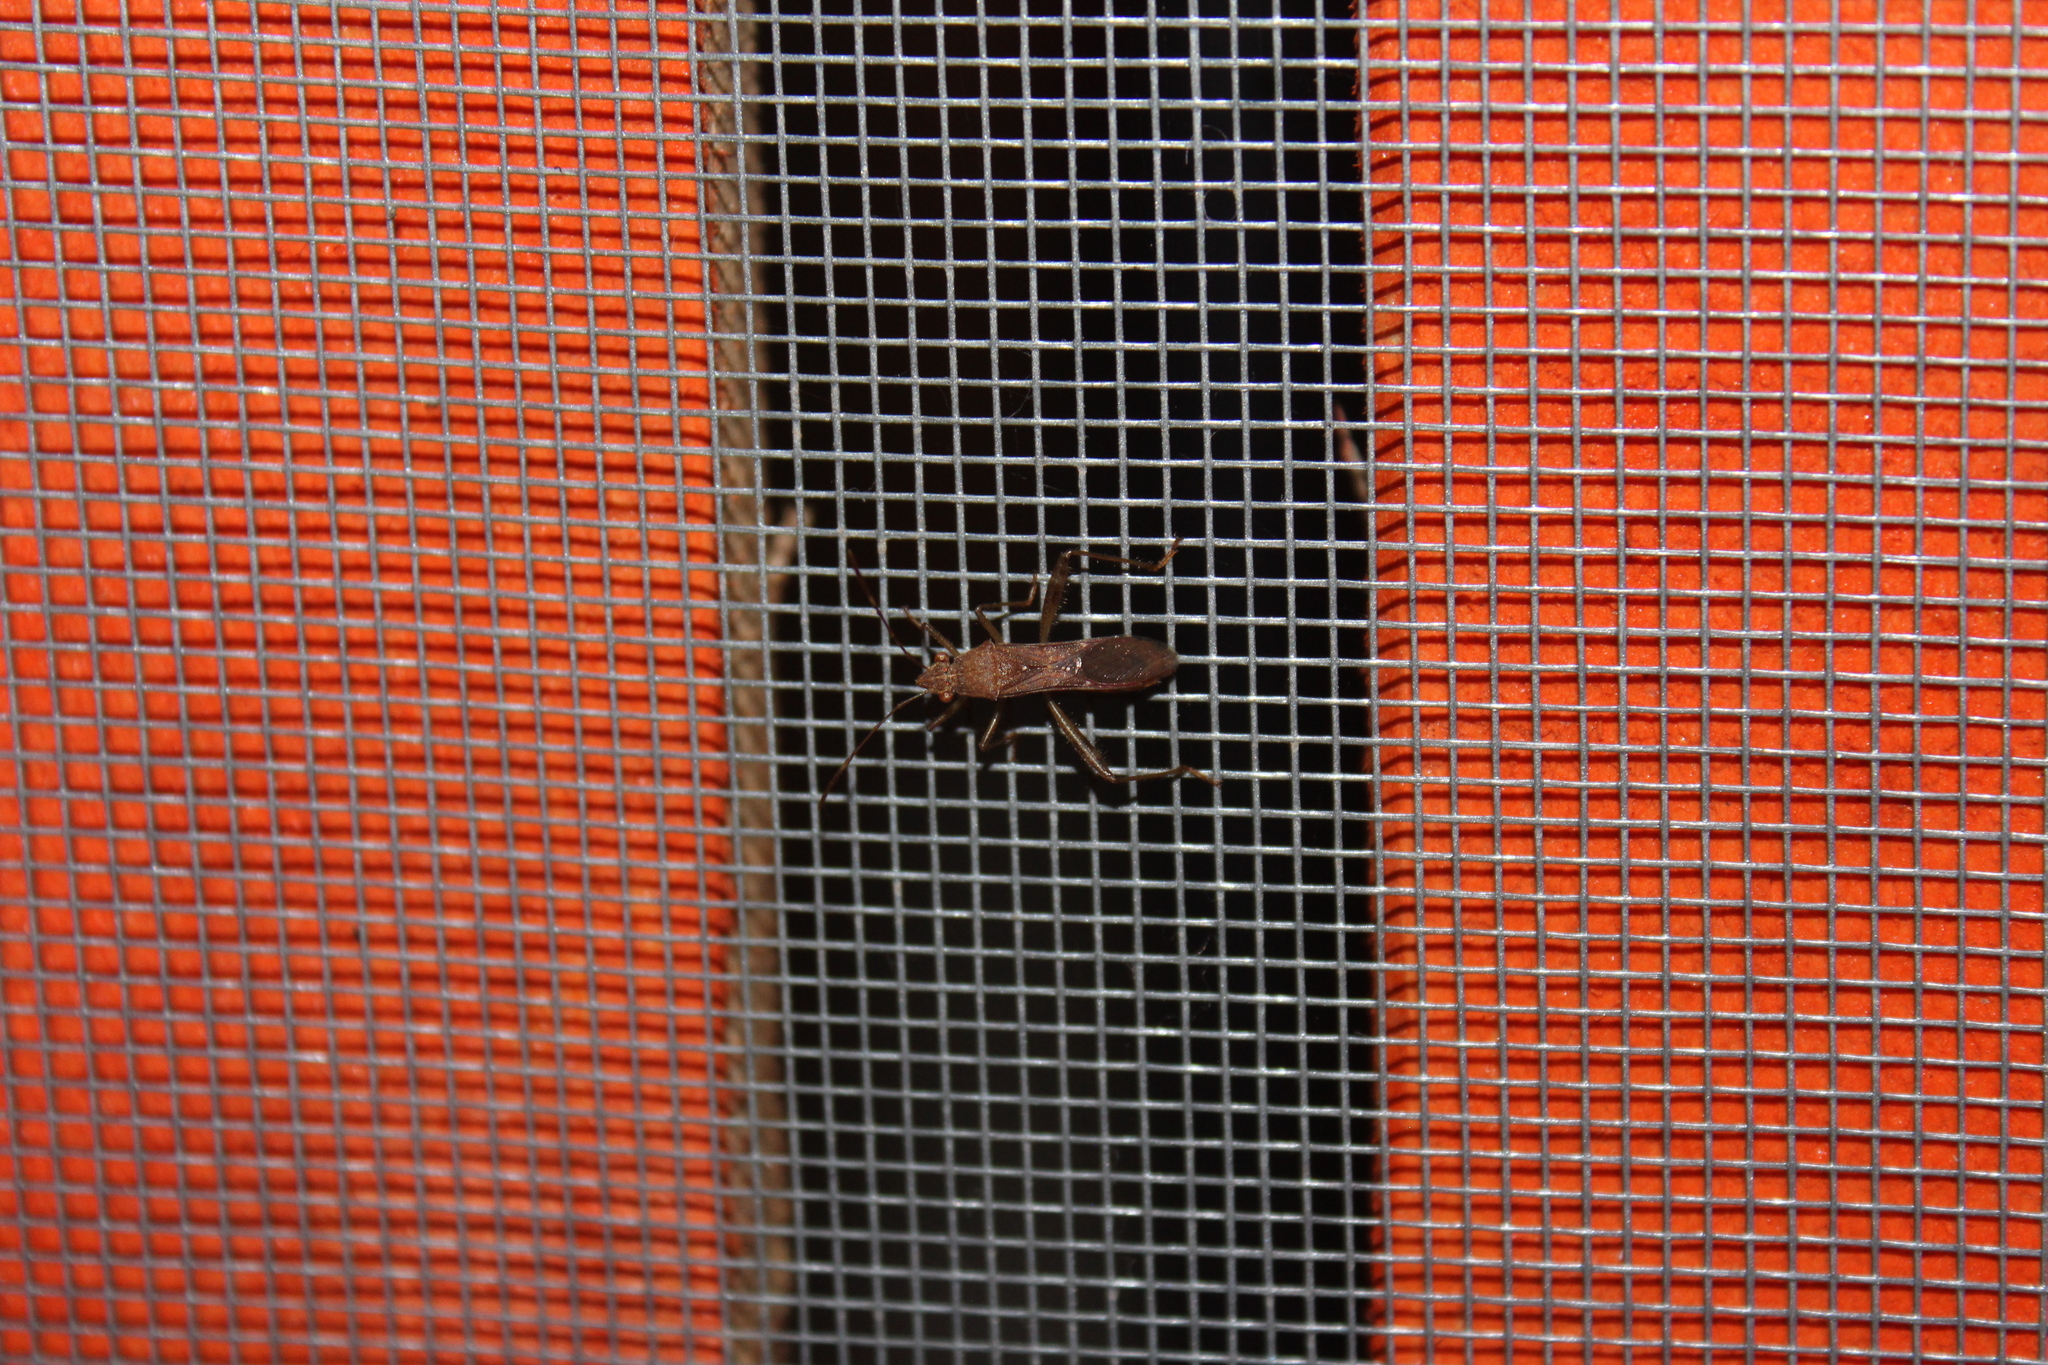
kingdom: Animalia
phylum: Arthropoda
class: Insecta
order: Hemiptera
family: Alydidae
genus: Burtinus
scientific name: Burtinus notatipennis
